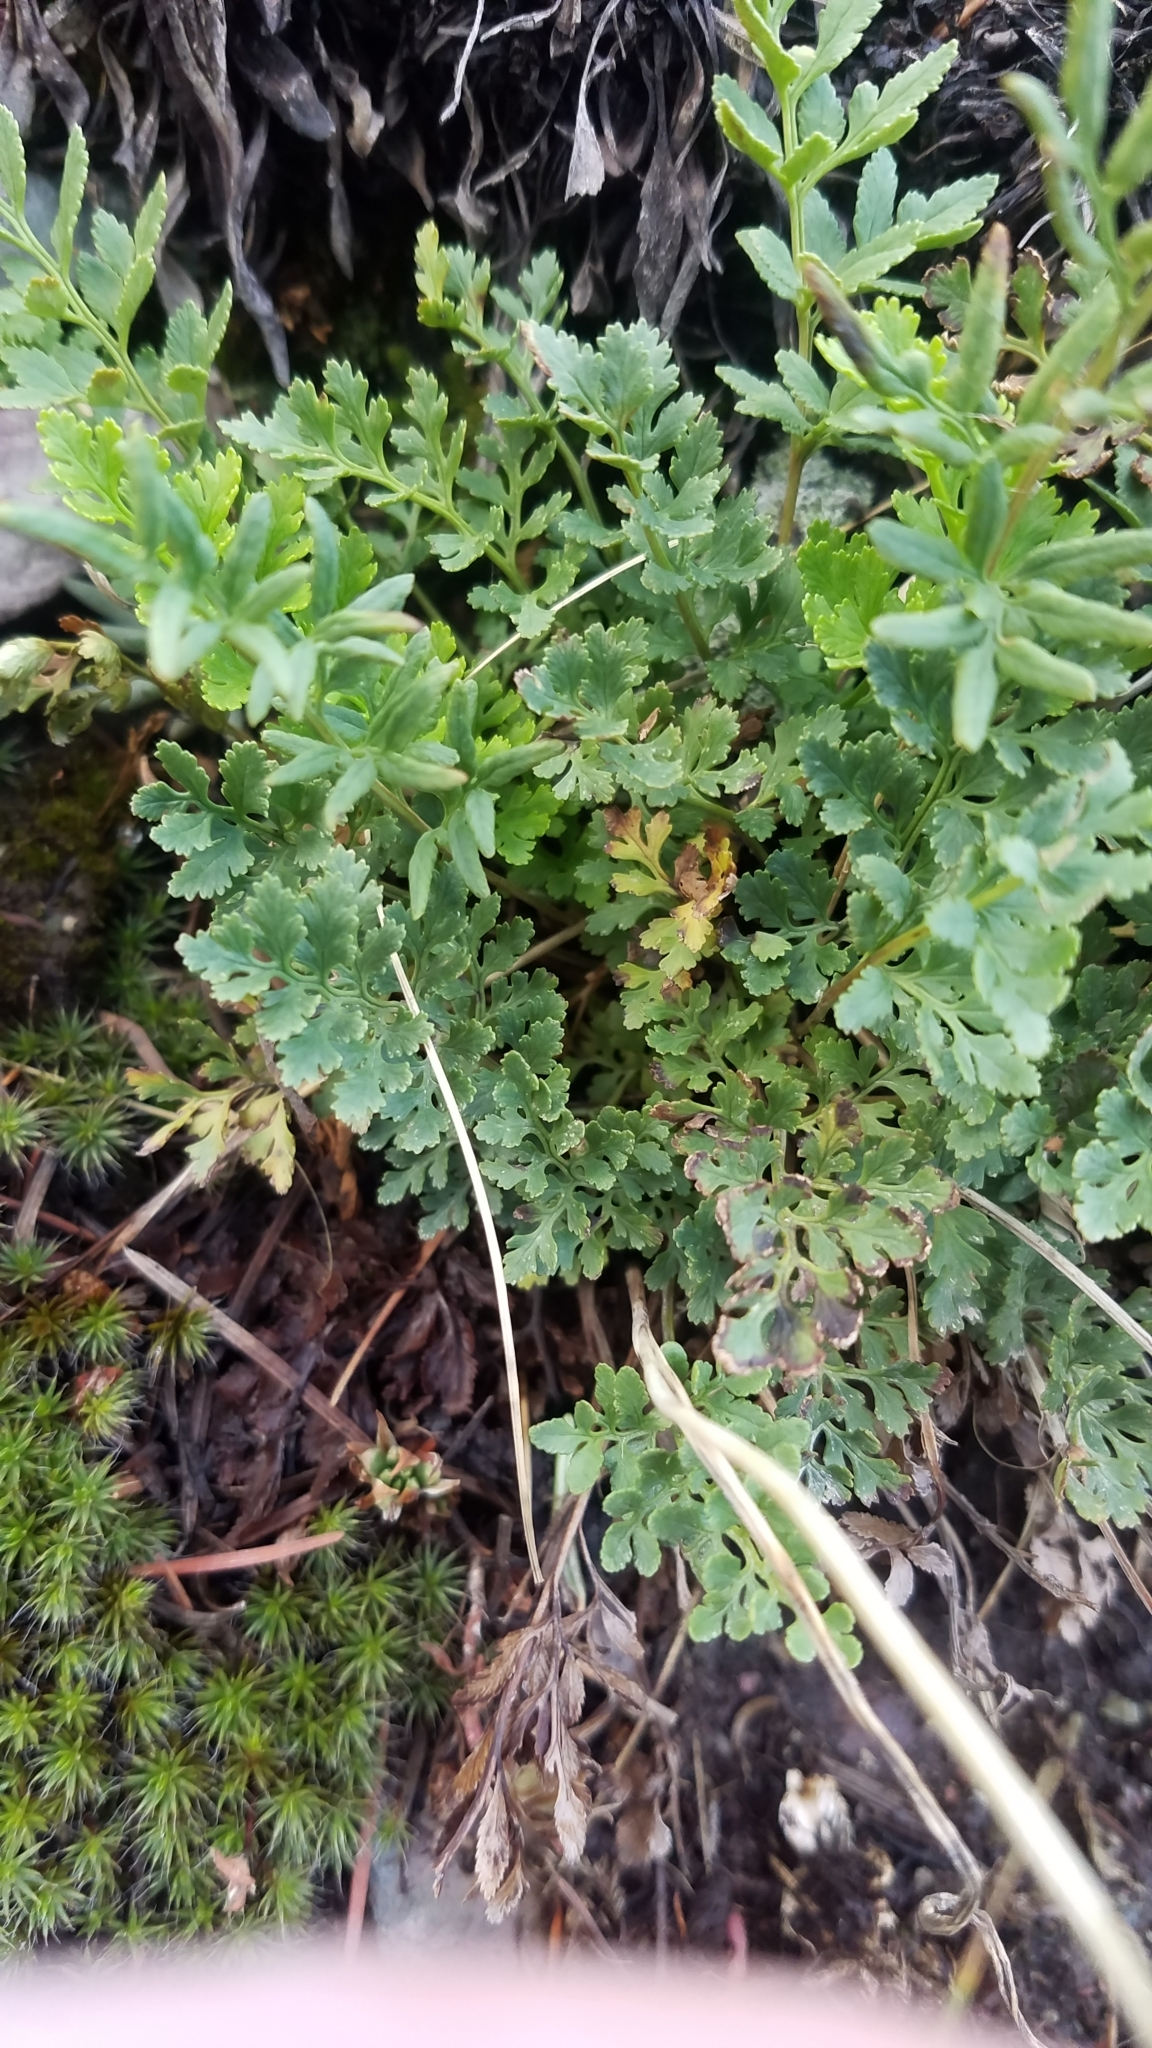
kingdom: Plantae
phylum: Tracheophyta
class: Polypodiopsida
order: Polypodiales
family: Pteridaceae
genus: Cryptogramma
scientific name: Cryptogramma acrostichoides
